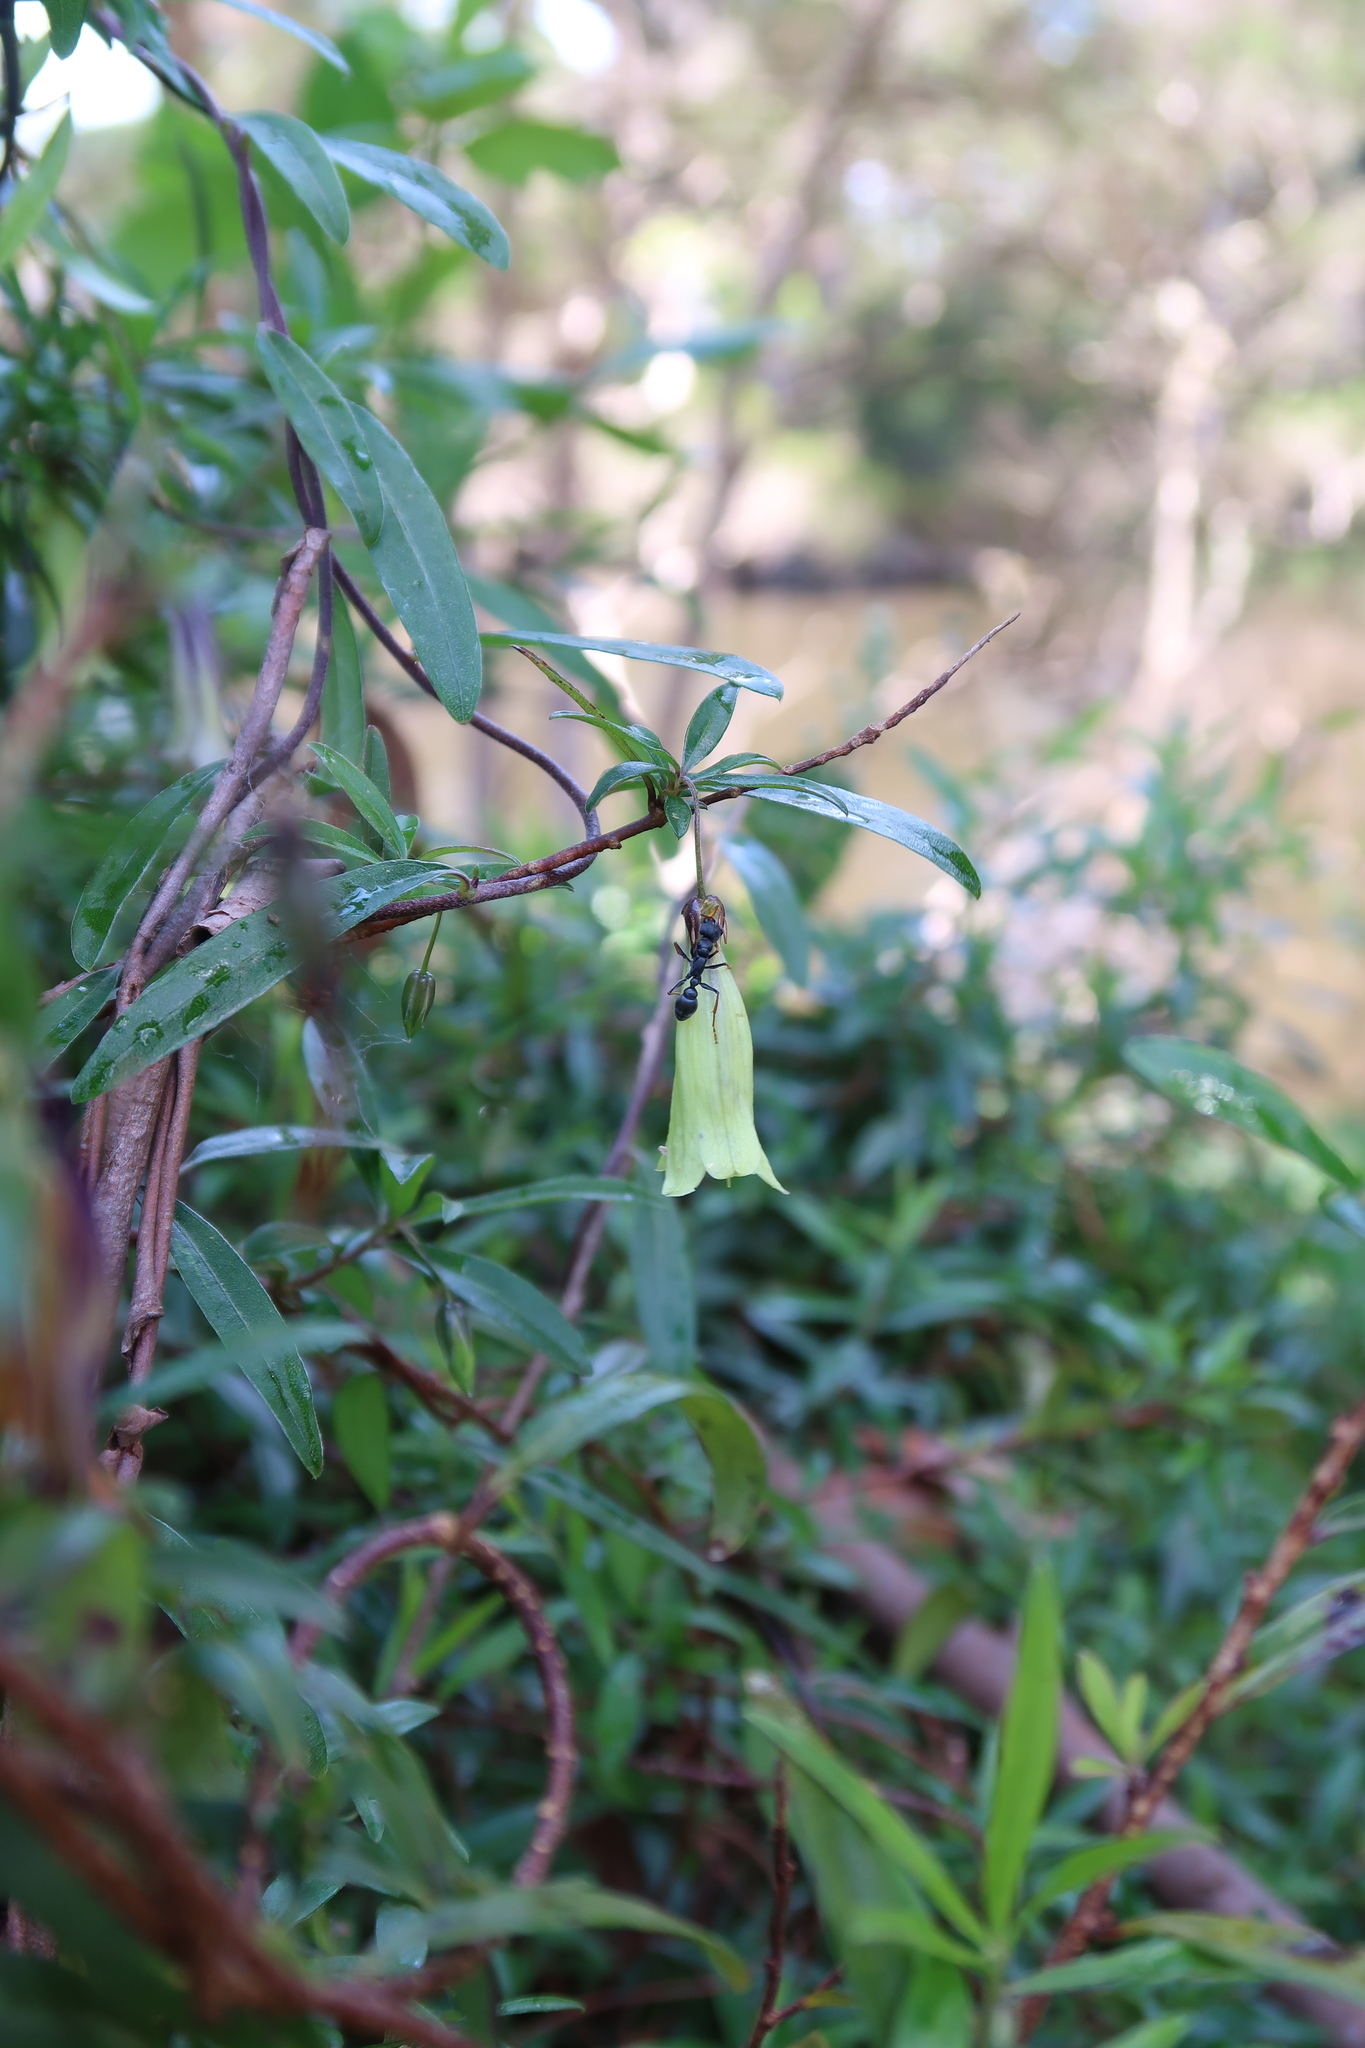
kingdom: Plantae
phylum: Tracheophyta
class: Magnoliopsida
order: Apiales
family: Pittosporaceae
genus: Billardiera
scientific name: Billardiera macrantha
